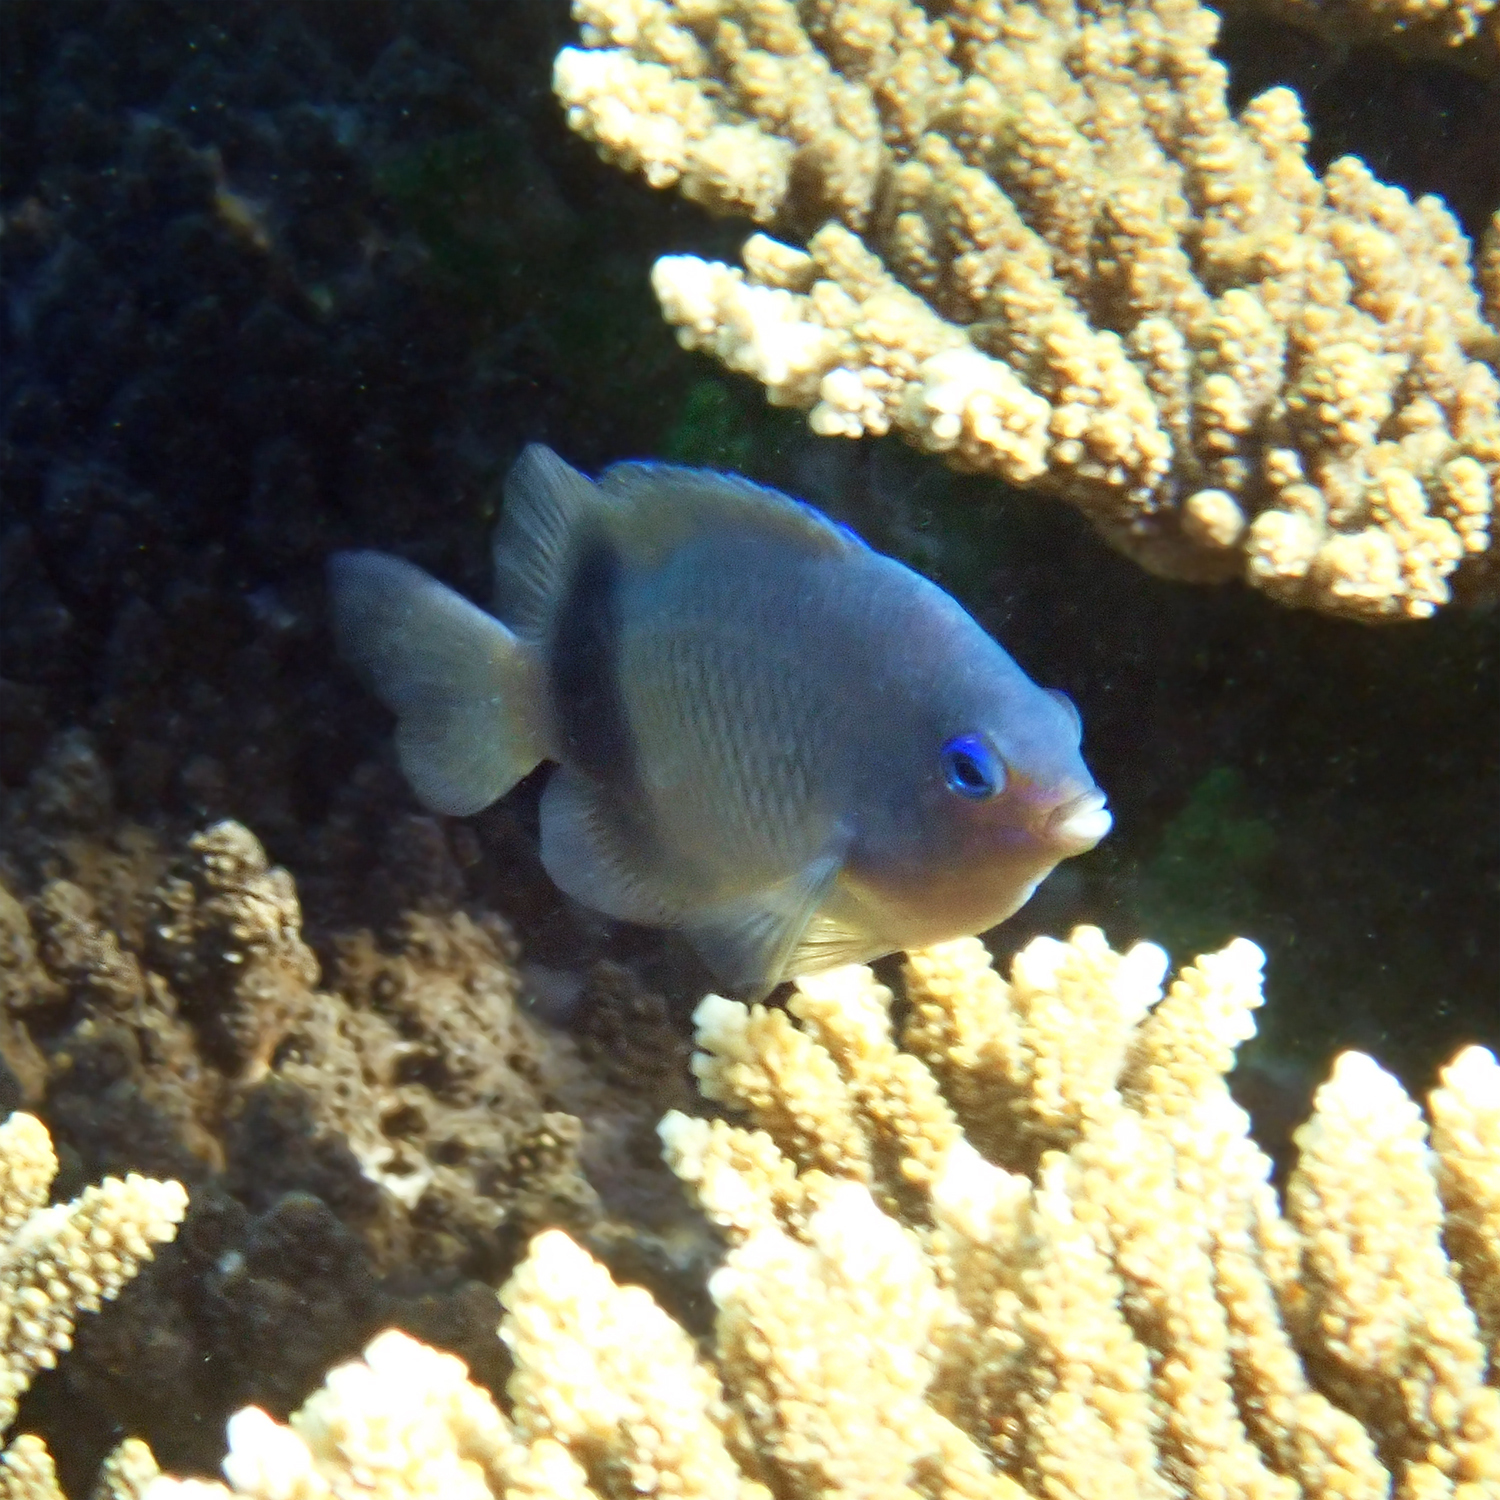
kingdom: Animalia
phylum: Chordata
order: Perciformes
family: Pomacentridae
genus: Plectroglyphidodon
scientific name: Plectroglyphidodon johnstonianus
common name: Johnston damsel
